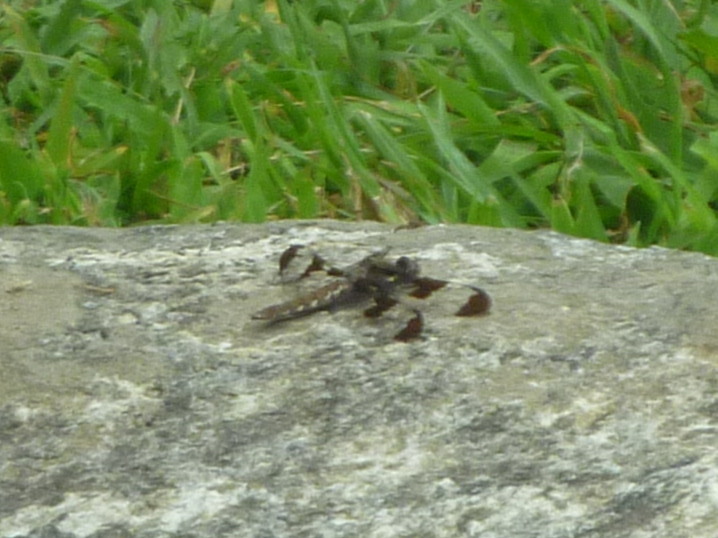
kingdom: Animalia
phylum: Arthropoda
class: Insecta
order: Odonata
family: Libellulidae
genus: Plathemis
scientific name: Plathemis lydia
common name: Common whitetail
